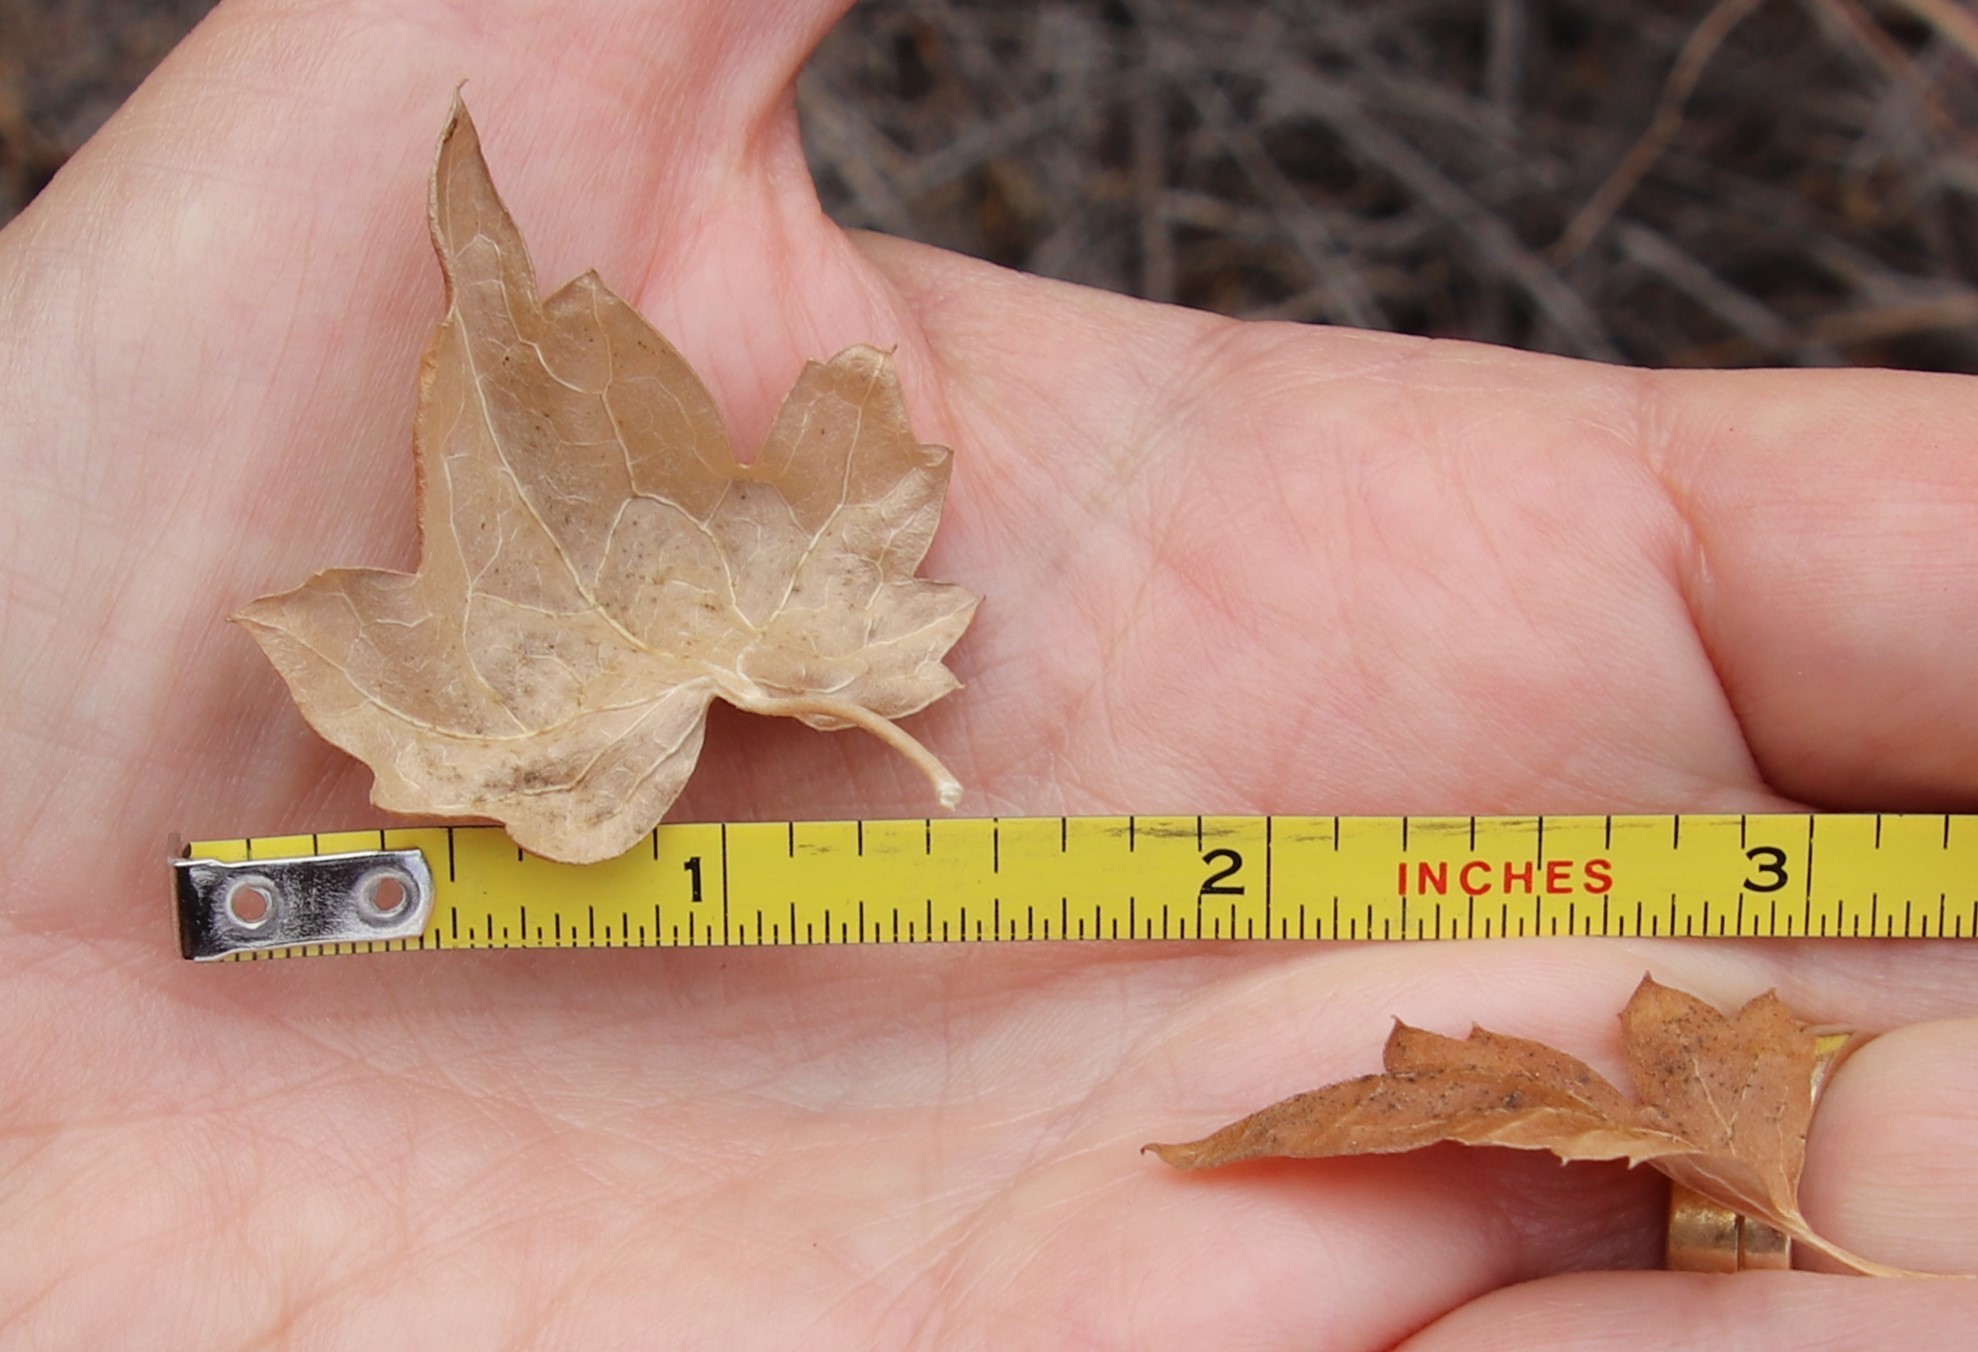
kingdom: Plantae
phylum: Tracheophyta
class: Magnoliopsida
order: Ranunculales
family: Ranunculaceae
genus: Clematis
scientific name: Clematis pauciflora
